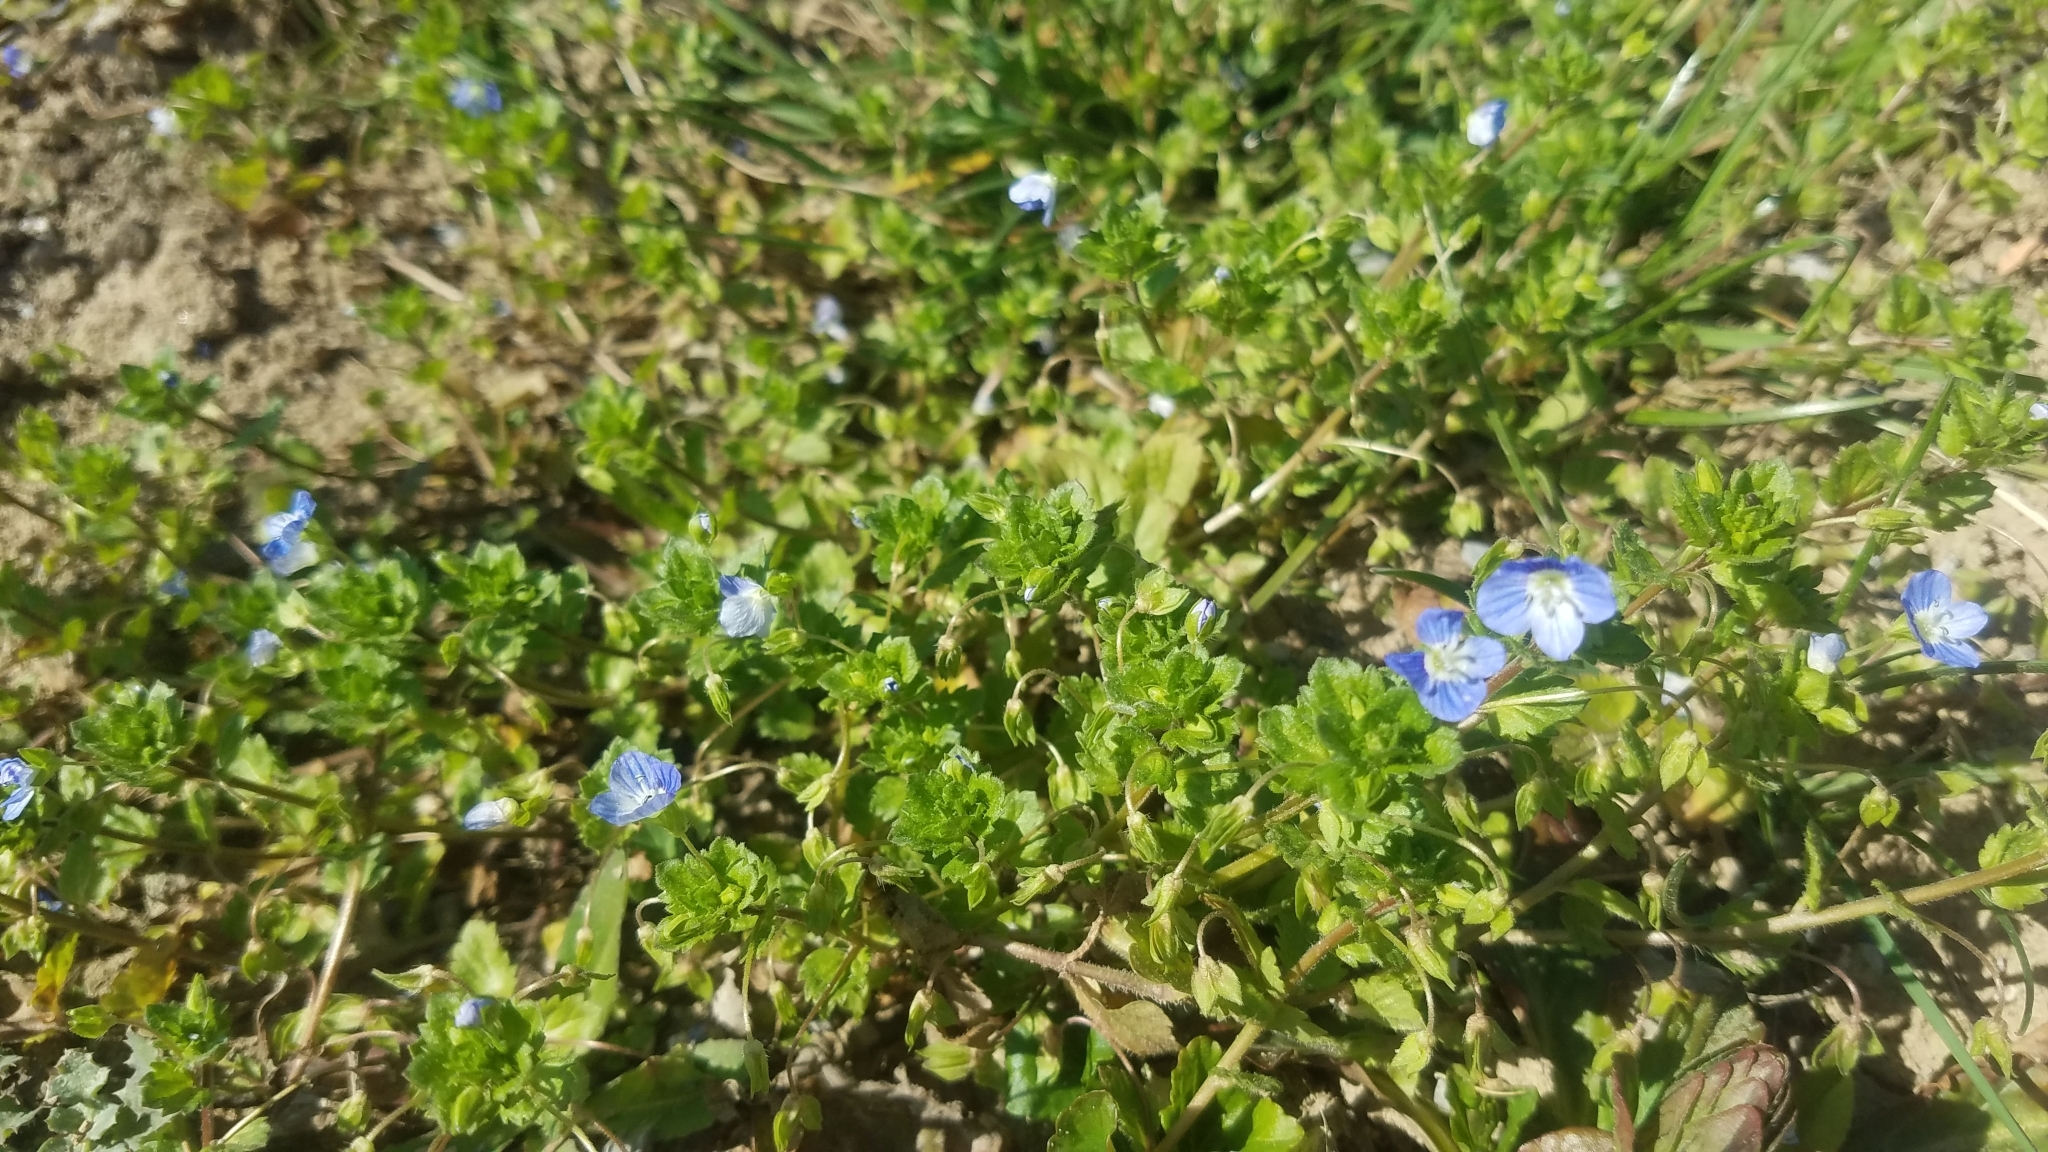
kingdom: Plantae
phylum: Tracheophyta
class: Magnoliopsida
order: Lamiales
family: Plantaginaceae
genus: Veronica
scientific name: Veronica persica
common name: Common field-speedwell
